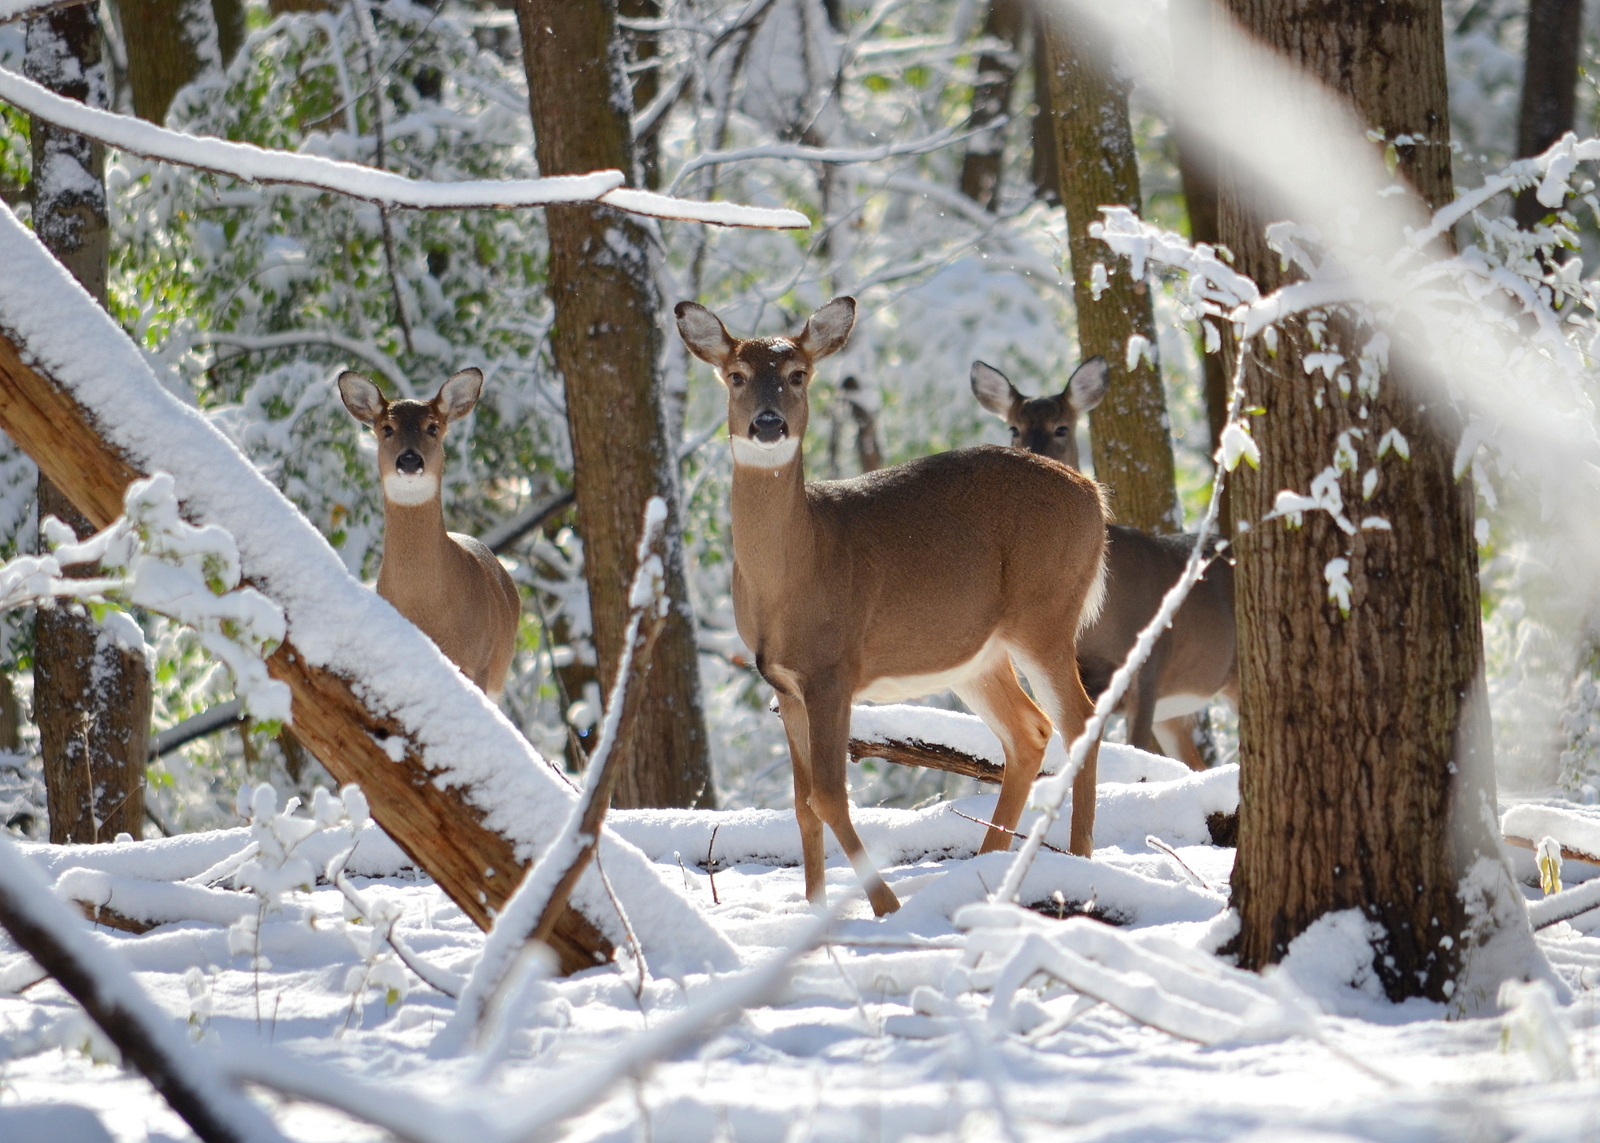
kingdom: Animalia
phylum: Chordata
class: Mammalia
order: Artiodactyla
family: Cervidae
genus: Odocoileus
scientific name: Odocoileus virginianus
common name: White-tailed deer
